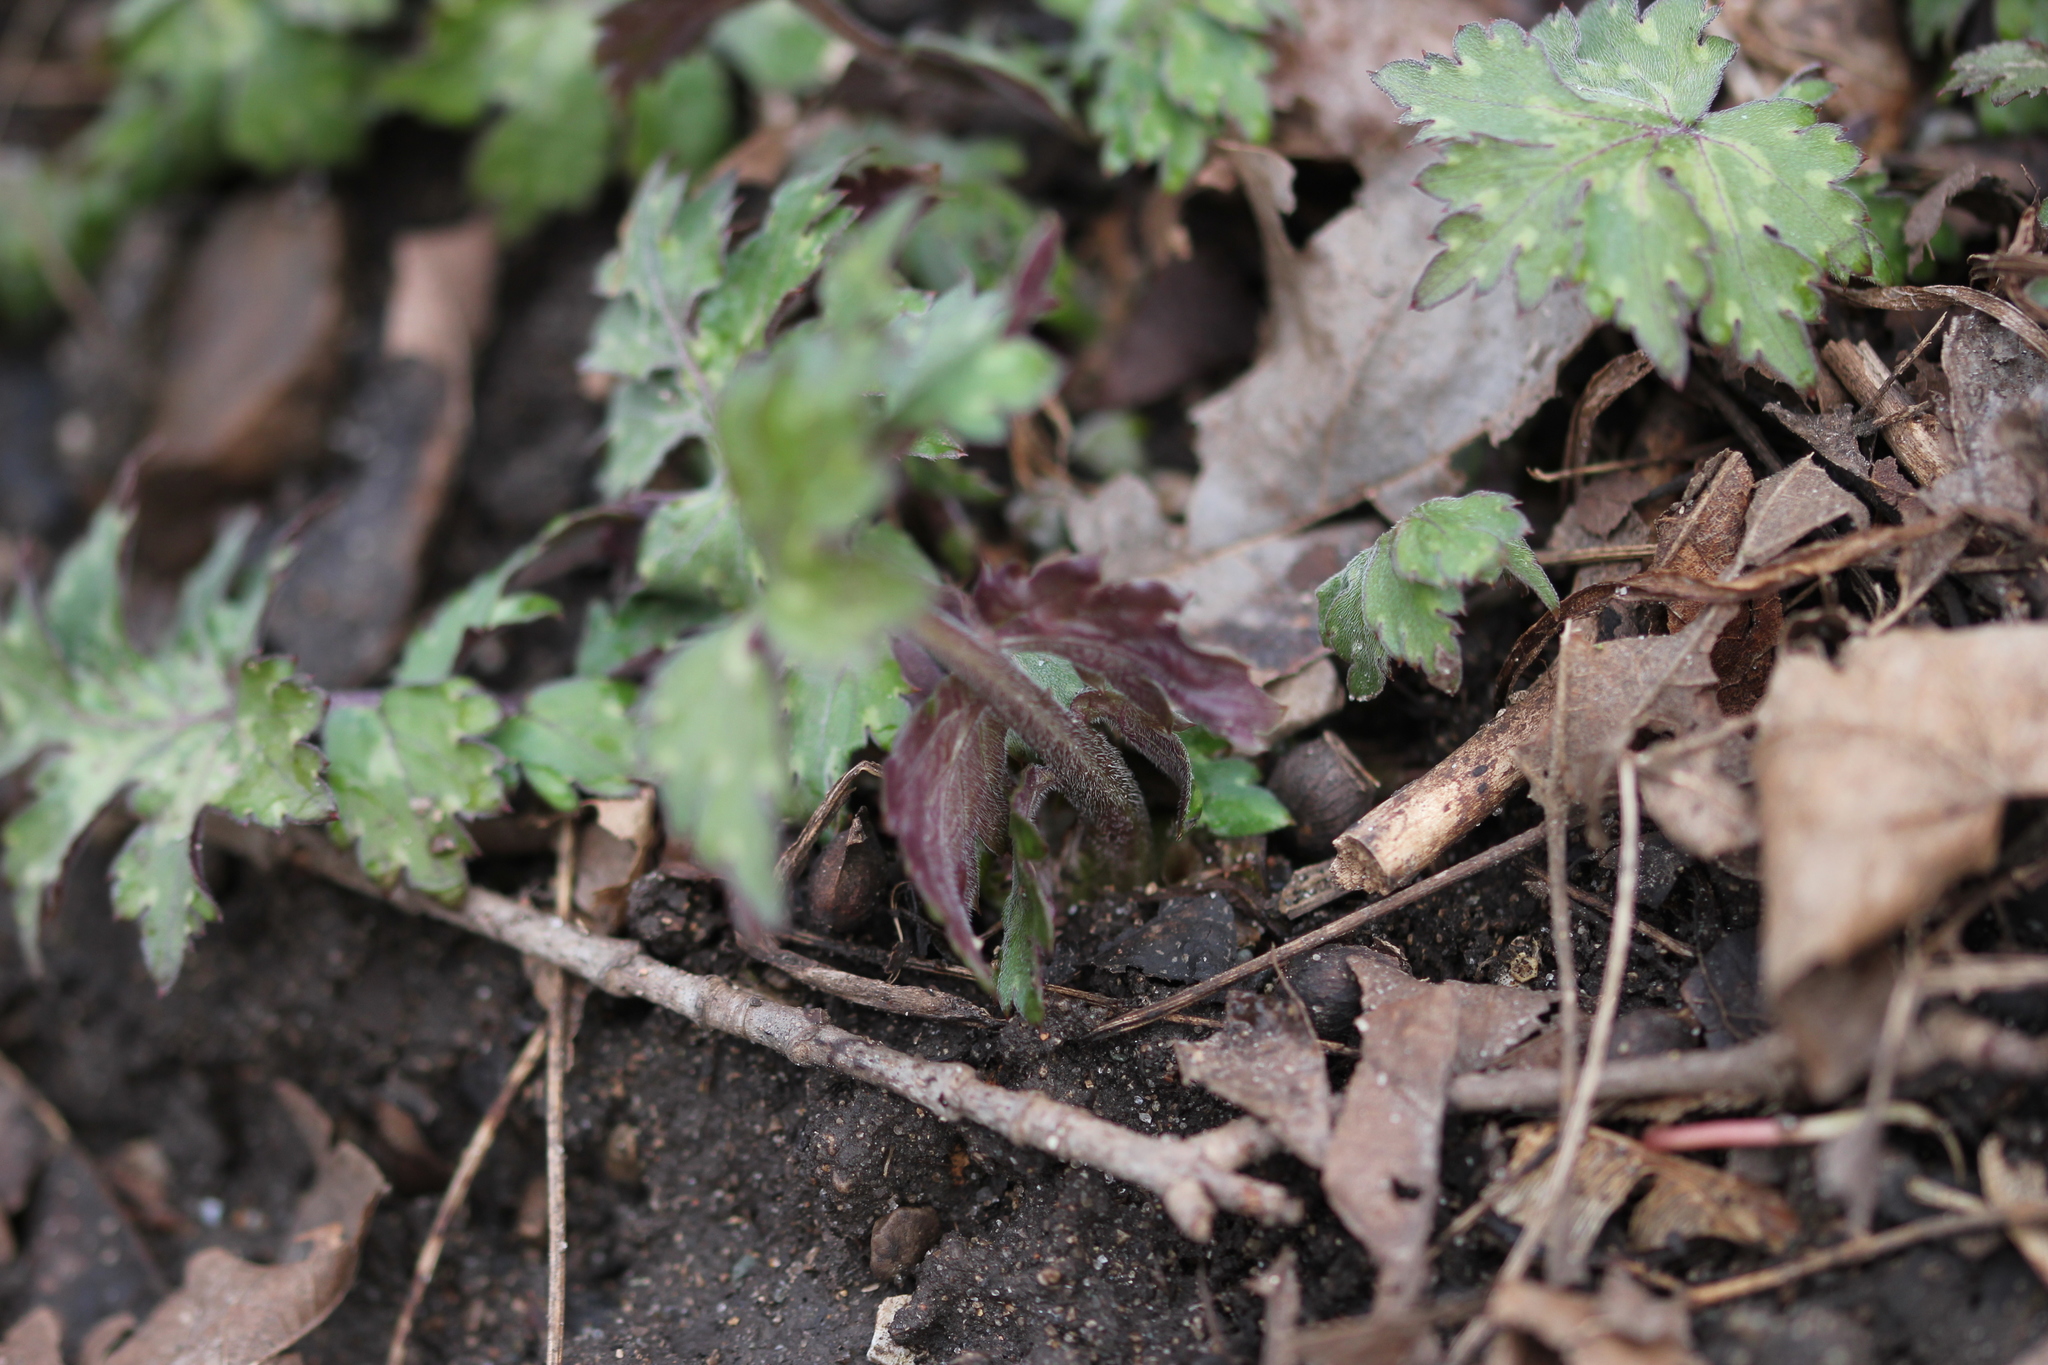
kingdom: Plantae
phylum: Tracheophyta
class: Magnoliopsida
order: Boraginales
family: Hydrophyllaceae
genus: Hydrophyllum
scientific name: Hydrophyllum canadense
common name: Canada waterleaf
